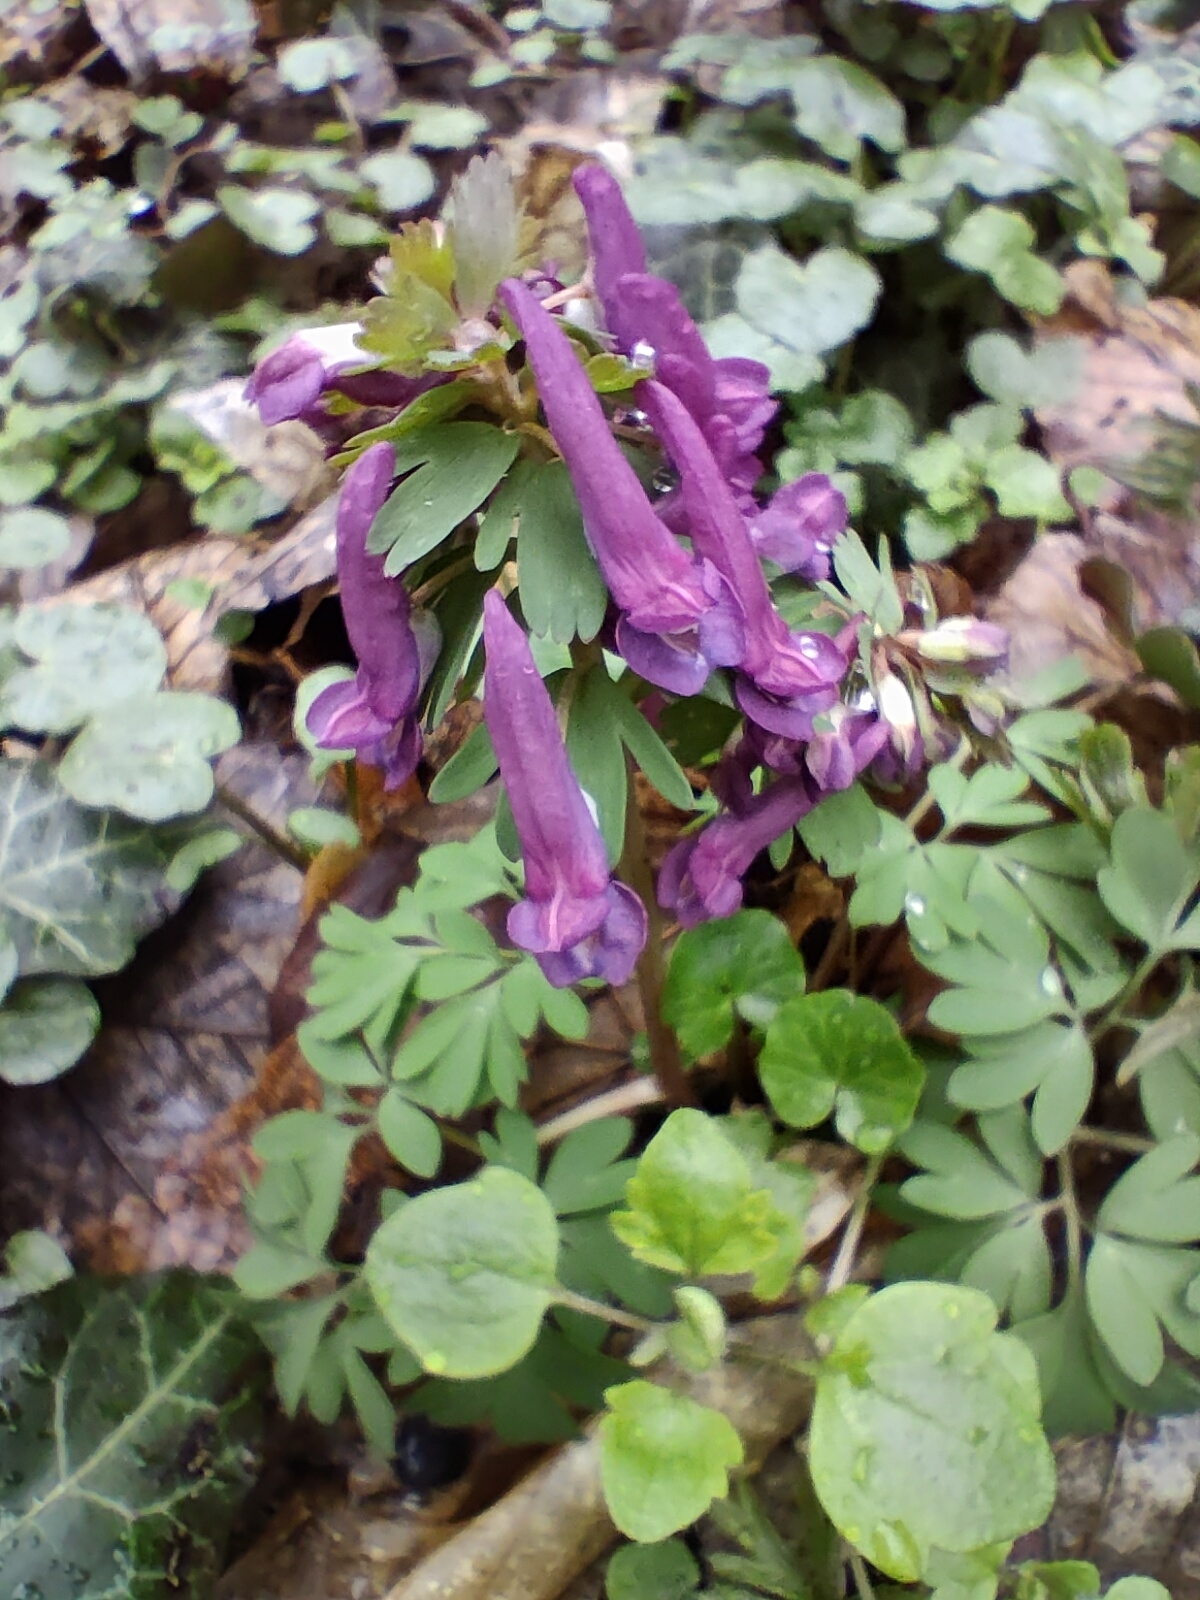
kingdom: Plantae
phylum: Tracheophyta
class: Magnoliopsida
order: Ranunculales
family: Papaveraceae
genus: Corydalis
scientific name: Corydalis solida
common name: Bird-in-a-bush
